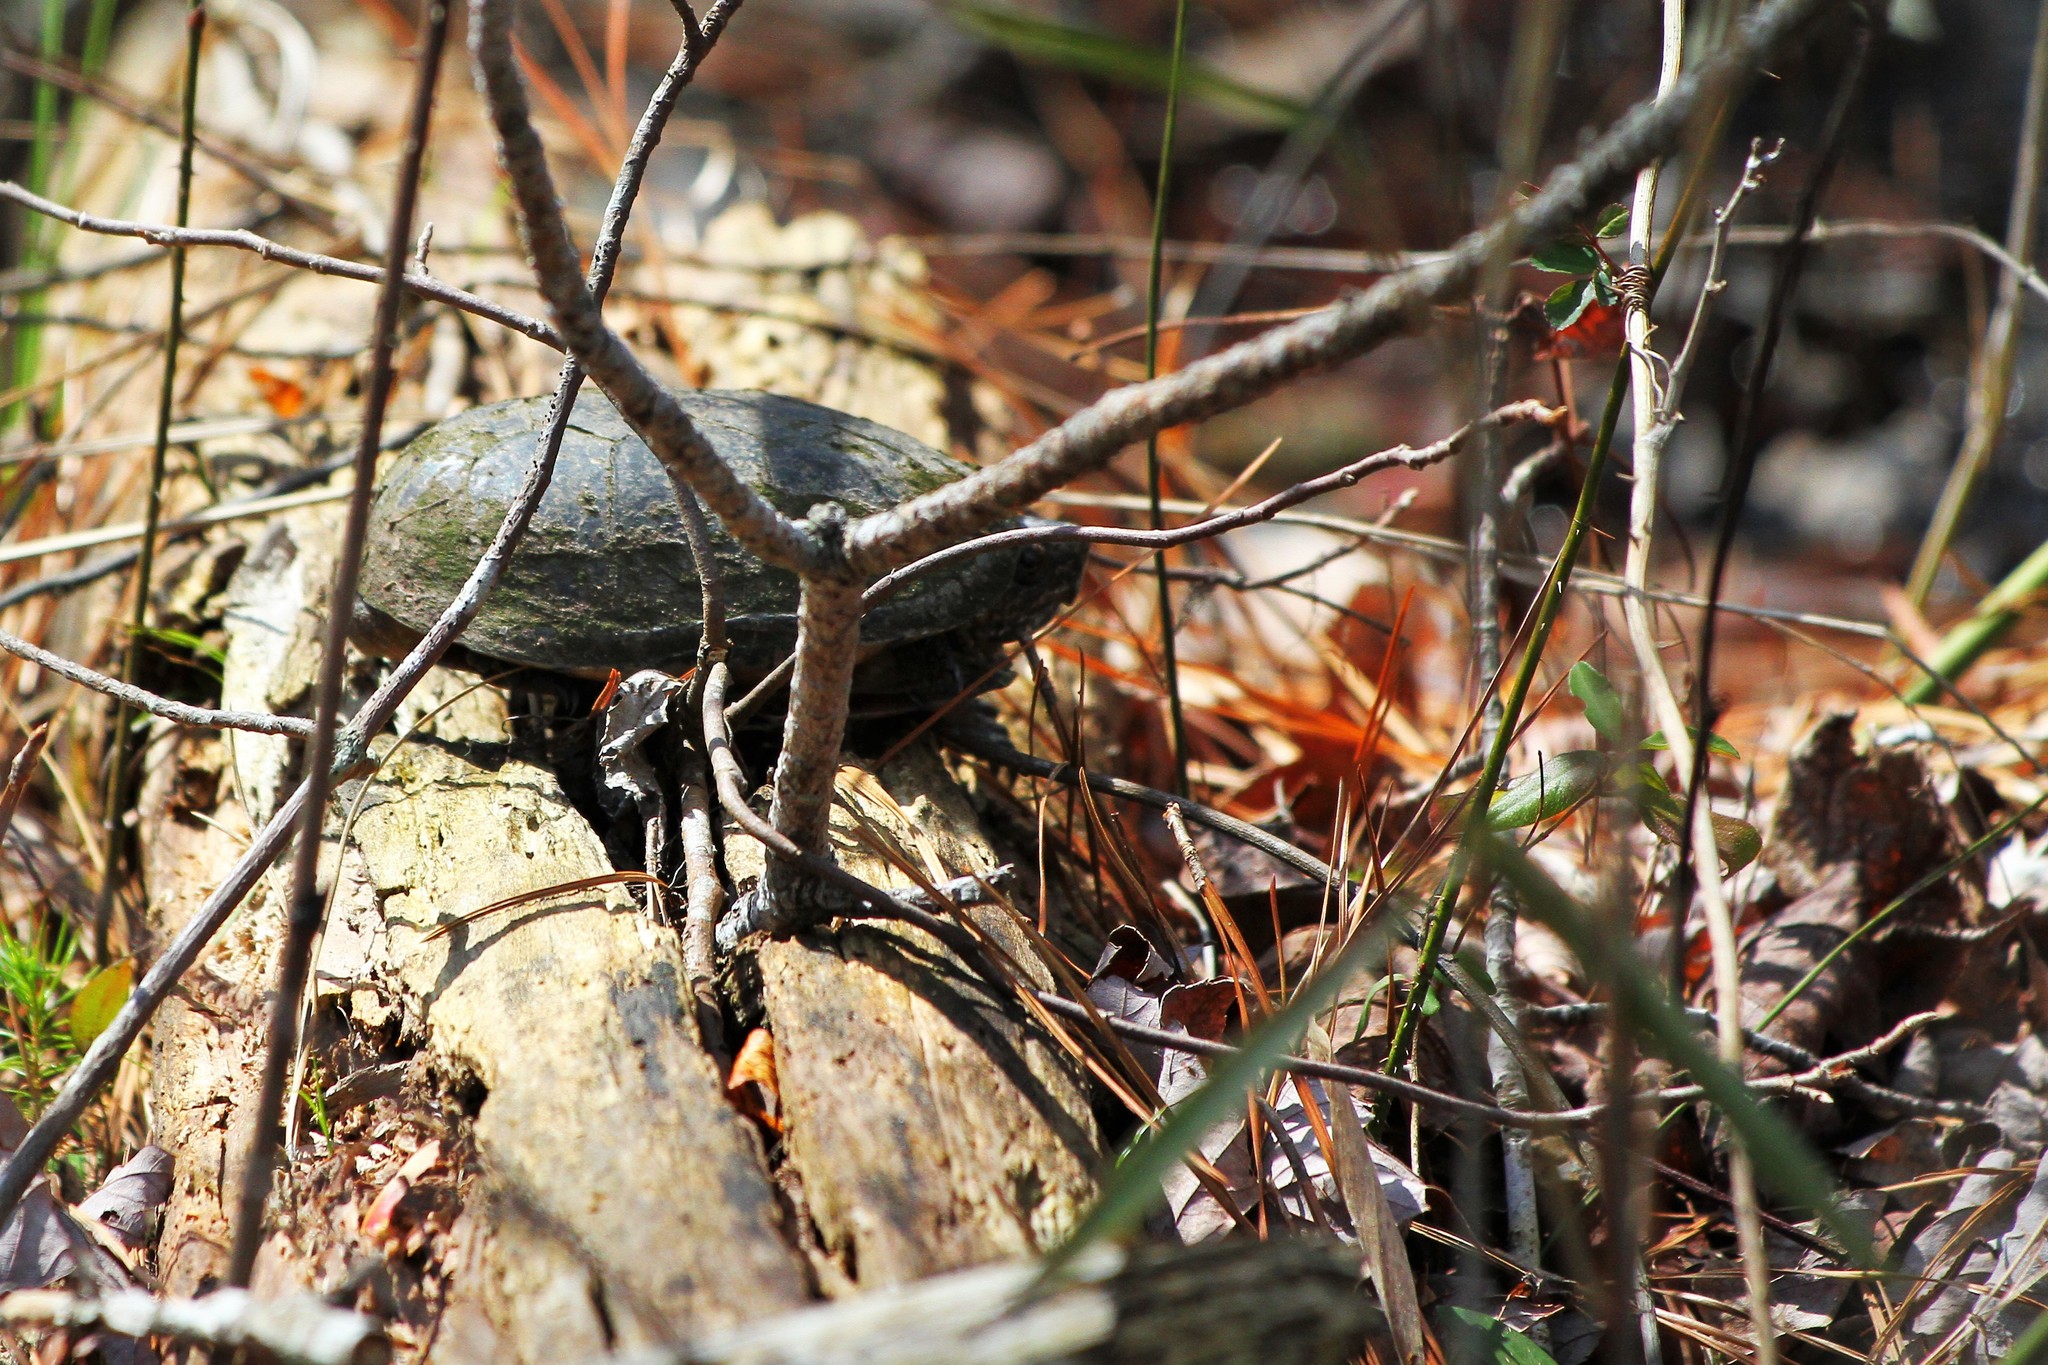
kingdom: Animalia
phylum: Chordata
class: Testudines
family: Kinosternidae
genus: Kinosternon
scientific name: Kinosternon subrubrum
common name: Eastern mud turtle
